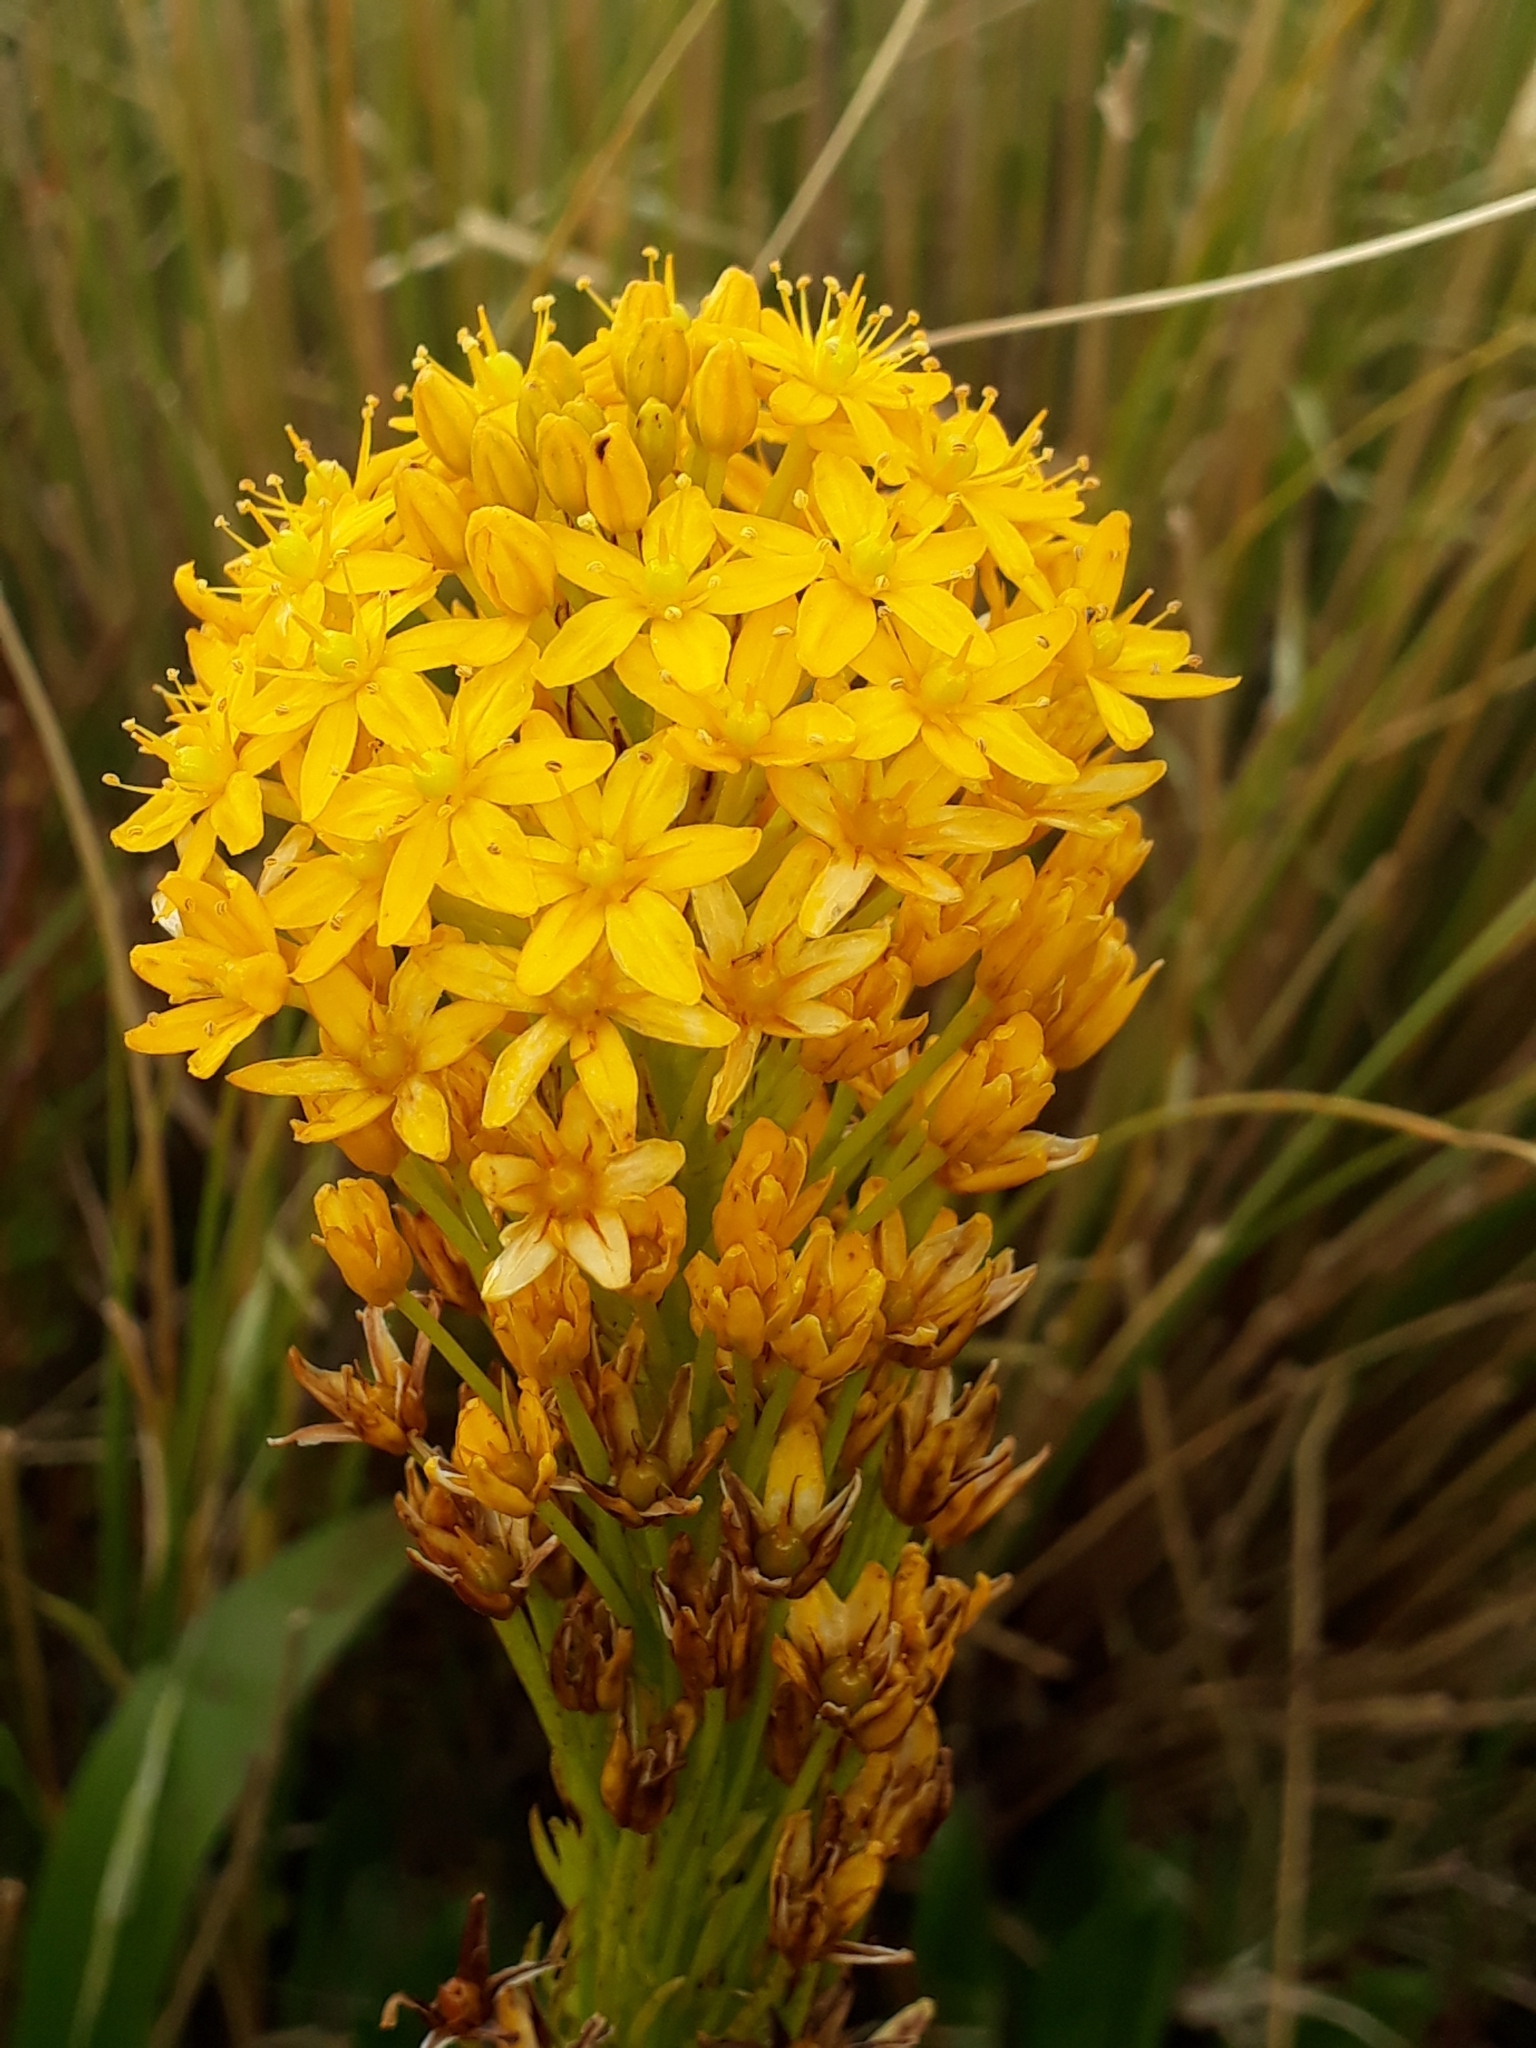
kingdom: Plantae
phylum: Tracheophyta
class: Liliopsida
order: Asparagales
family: Asphodelaceae
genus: Bulbinella
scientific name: Bulbinella gibbsii
